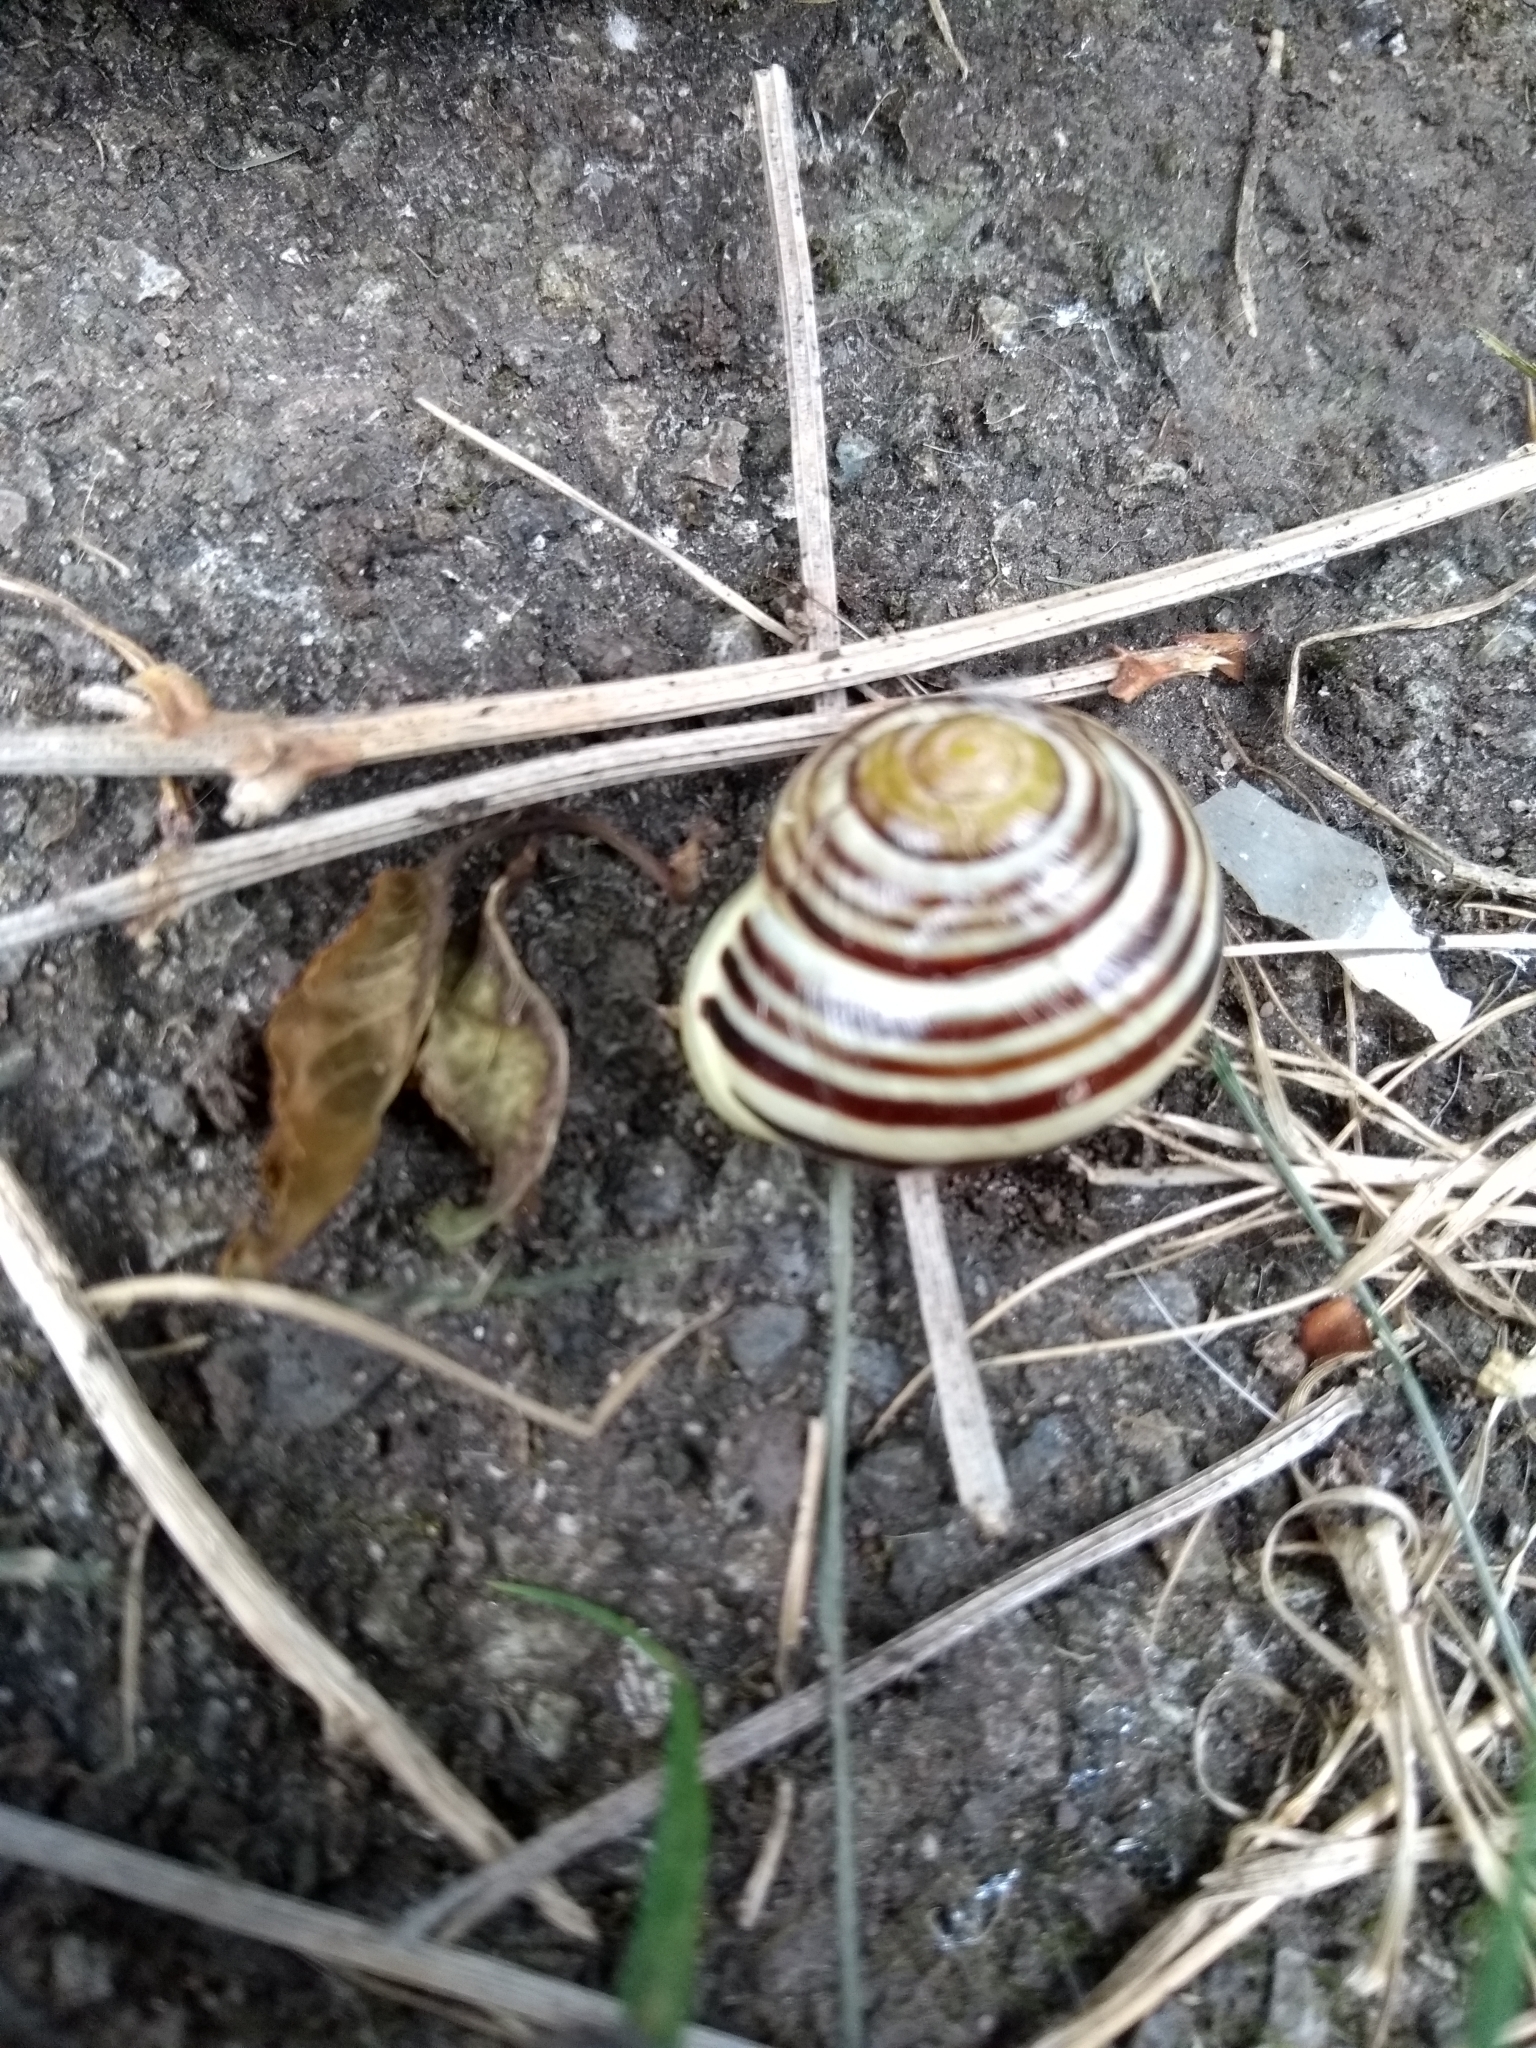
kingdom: Animalia
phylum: Mollusca
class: Gastropoda
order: Stylommatophora
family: Helicidae
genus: Cepaea
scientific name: Cepaea hortensis
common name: White-lip gardensnail
